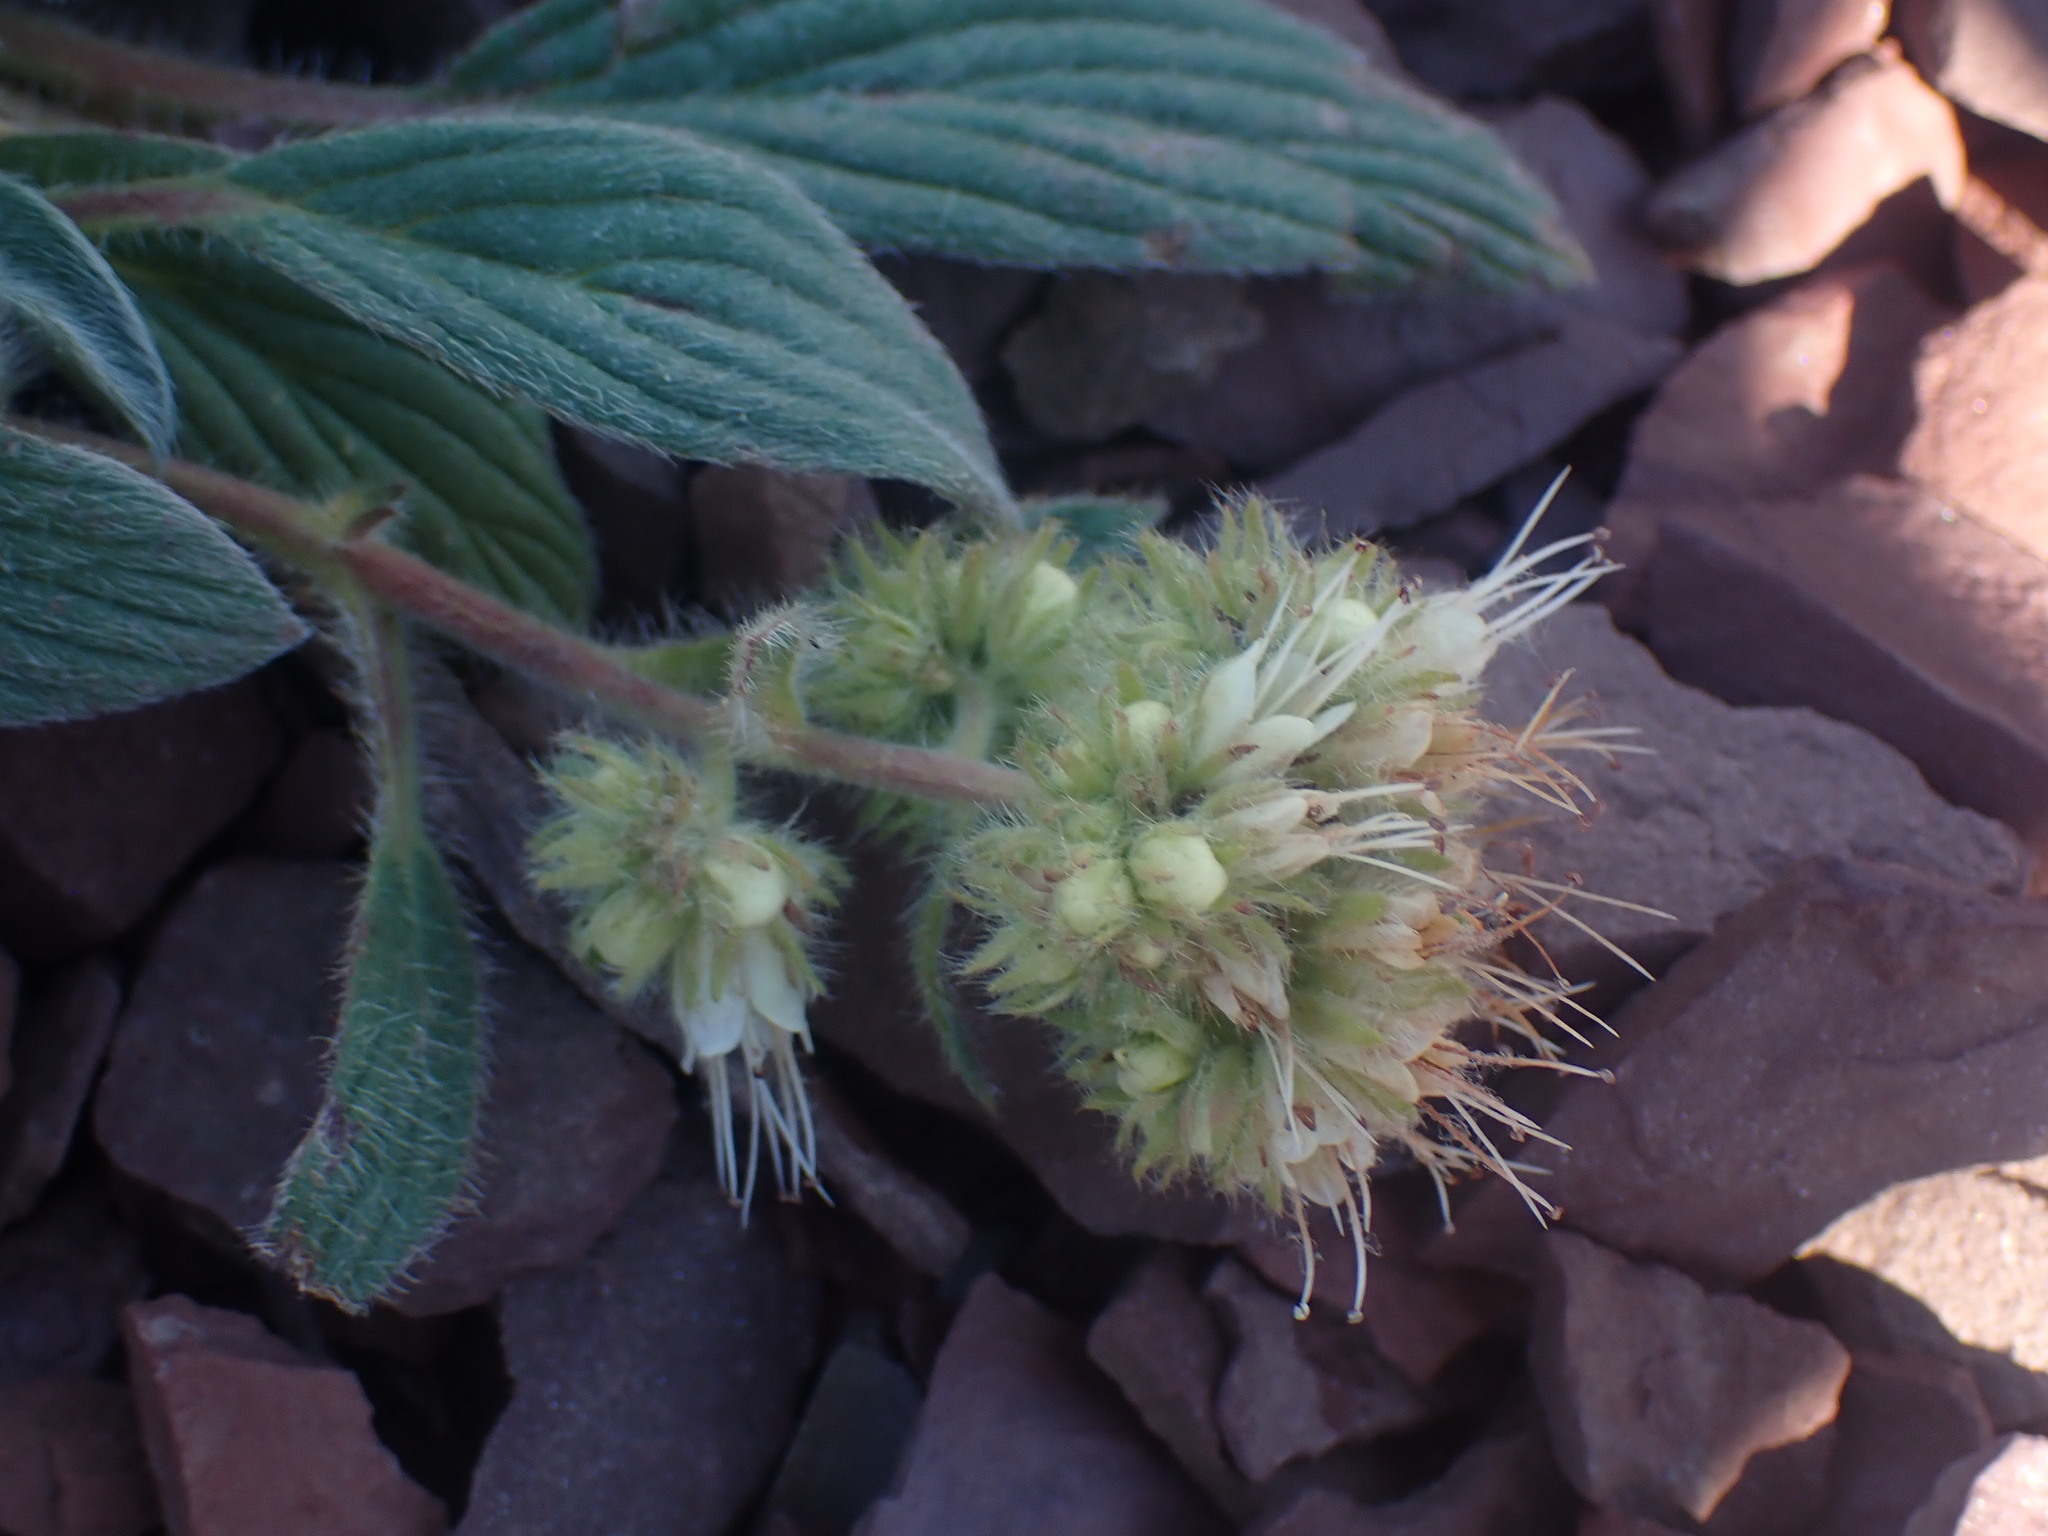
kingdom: Plantae
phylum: Tracheophyta
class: Magnoliopsida
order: Boraginales
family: Hydrophyllaceae
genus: Phacelia
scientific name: Phacelia hastata
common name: Silver-leaved phacelia
